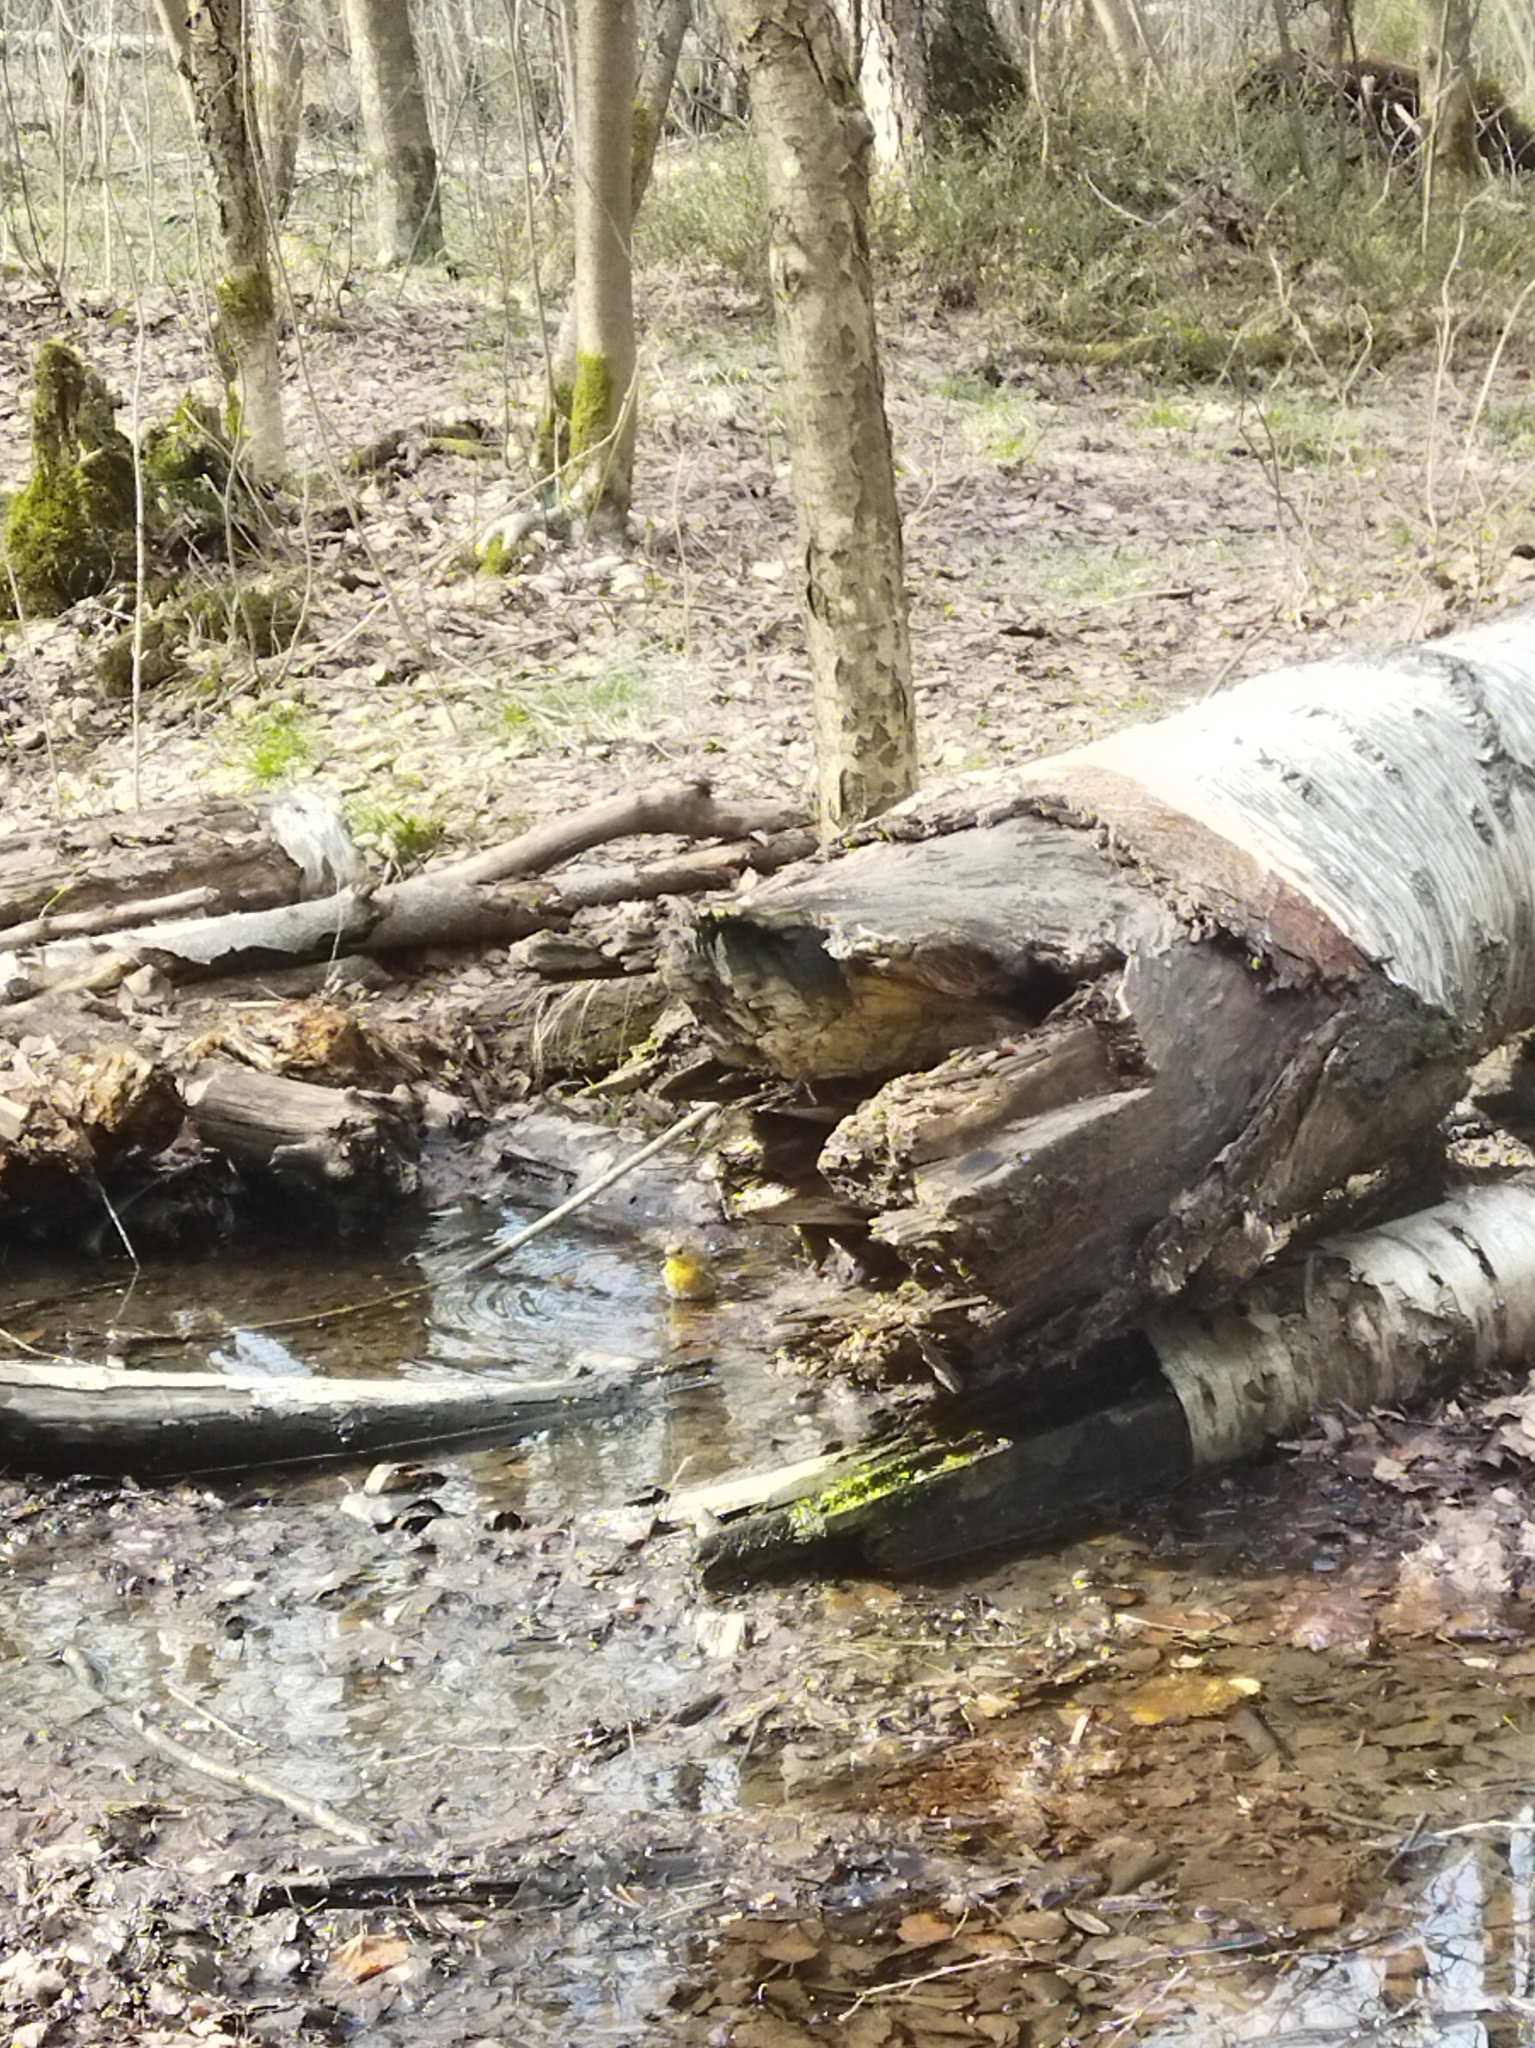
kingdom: Animalia
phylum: Chordata
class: Aves
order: Passeriformes
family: Muscicapidae
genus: Erithacus
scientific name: Erithacus rubecula
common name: European robin
